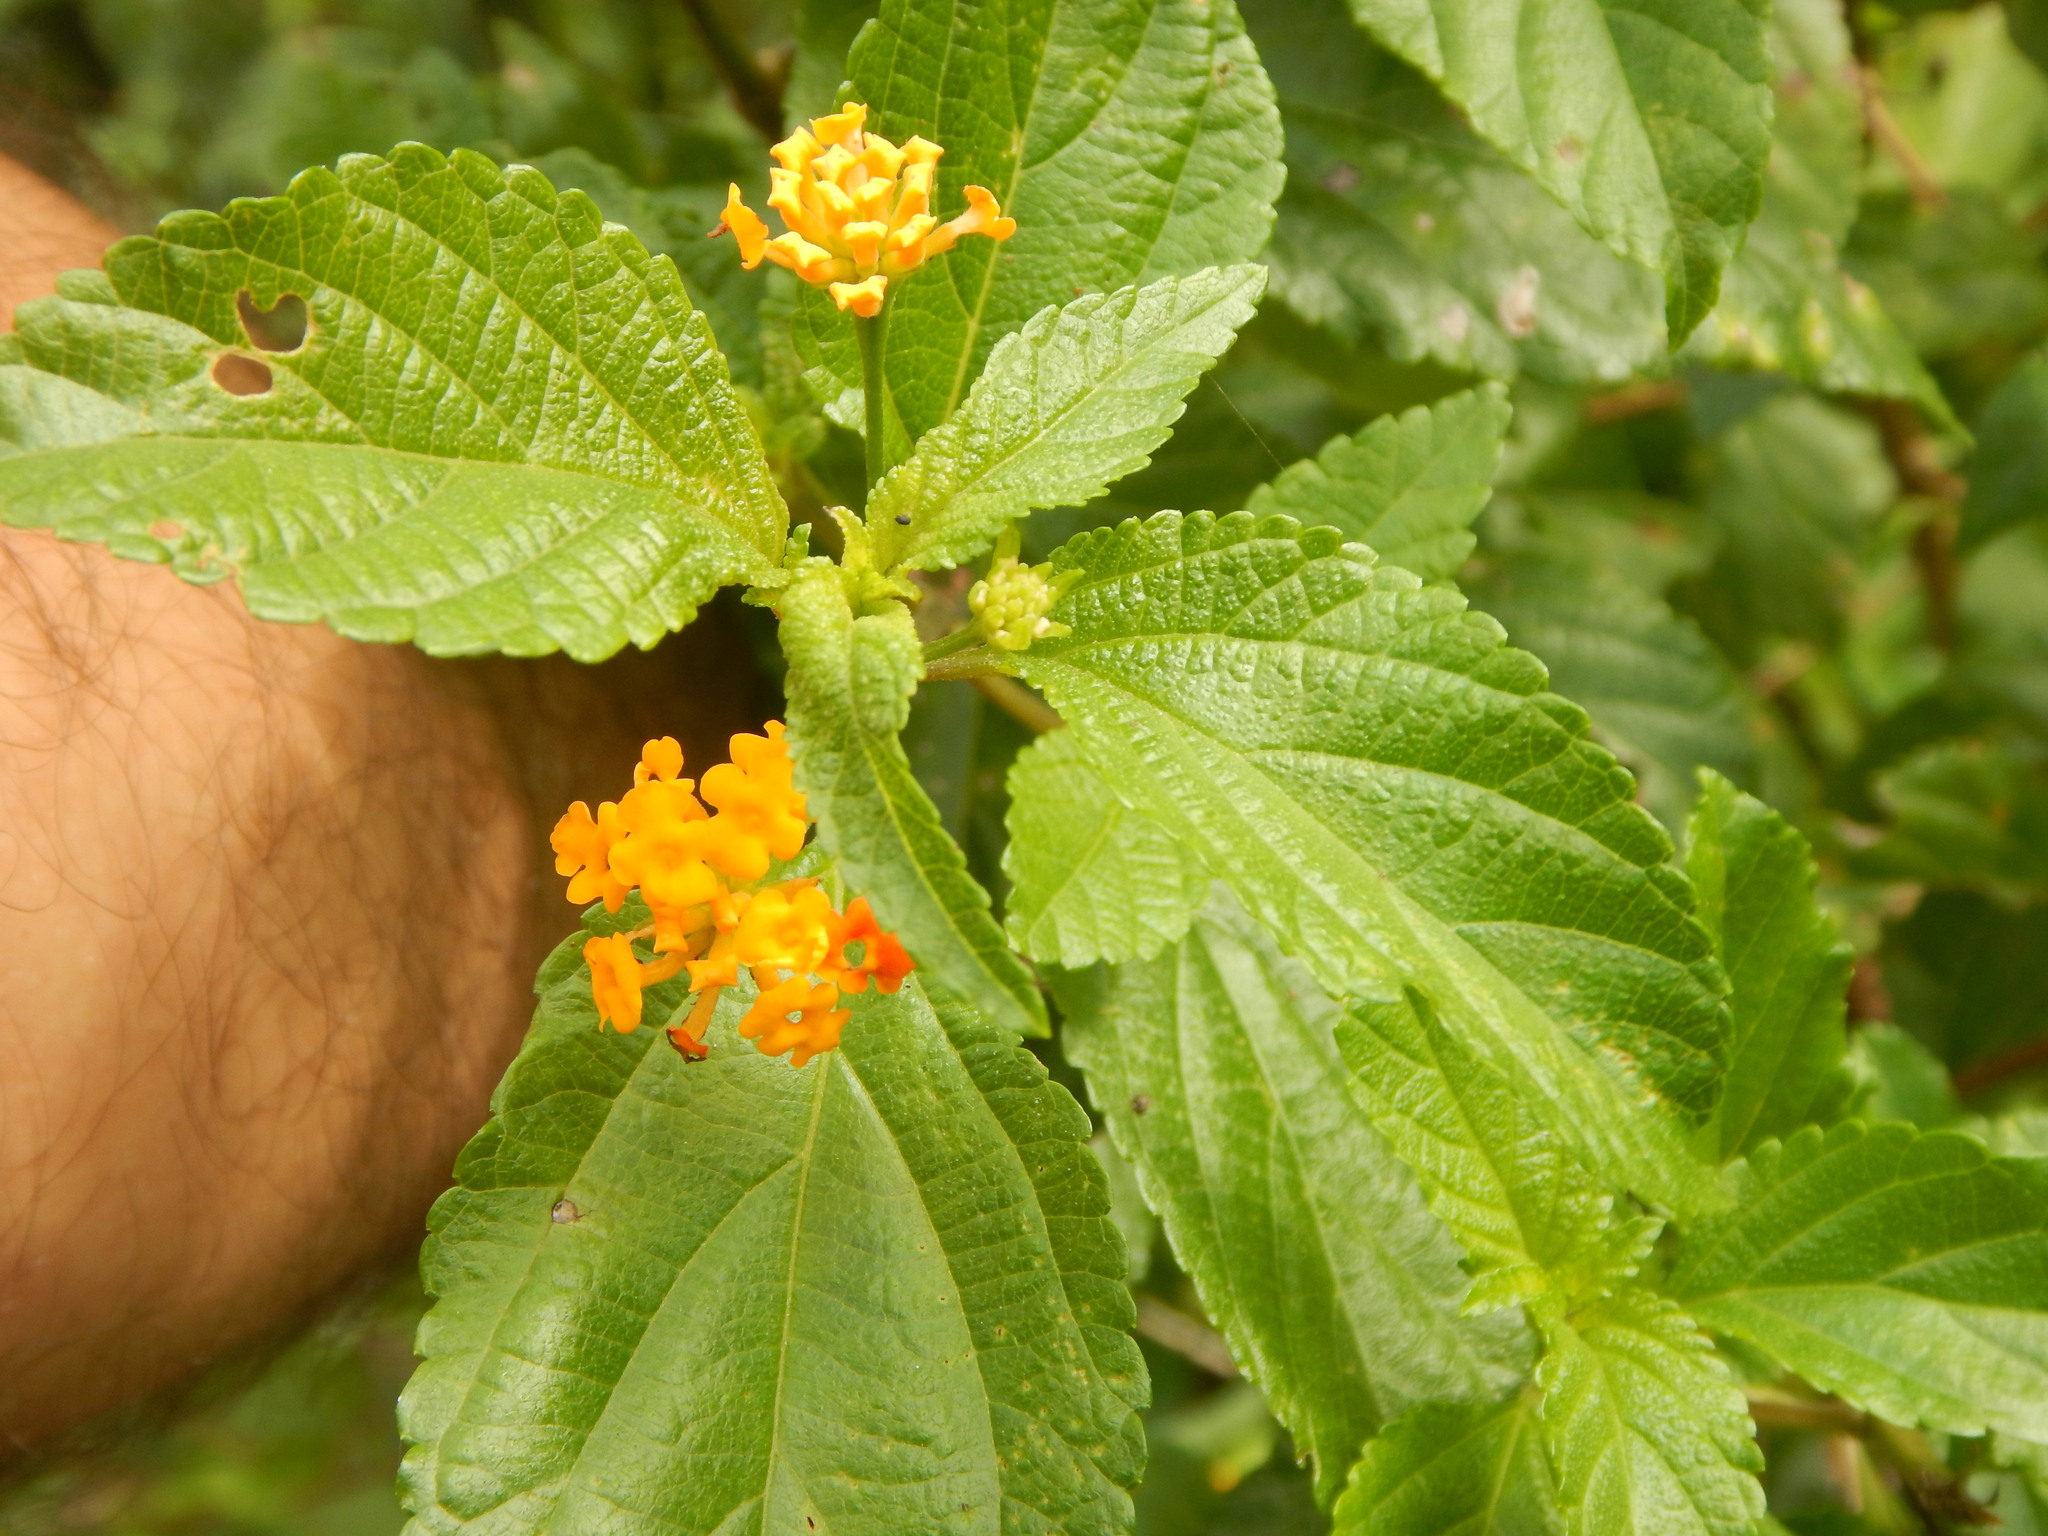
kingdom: Plantae
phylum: Tracheophyta
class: Magnoliopsida
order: Lamiales
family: Verbenaceae
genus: Lantana
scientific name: Lantana camara
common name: Lantana
